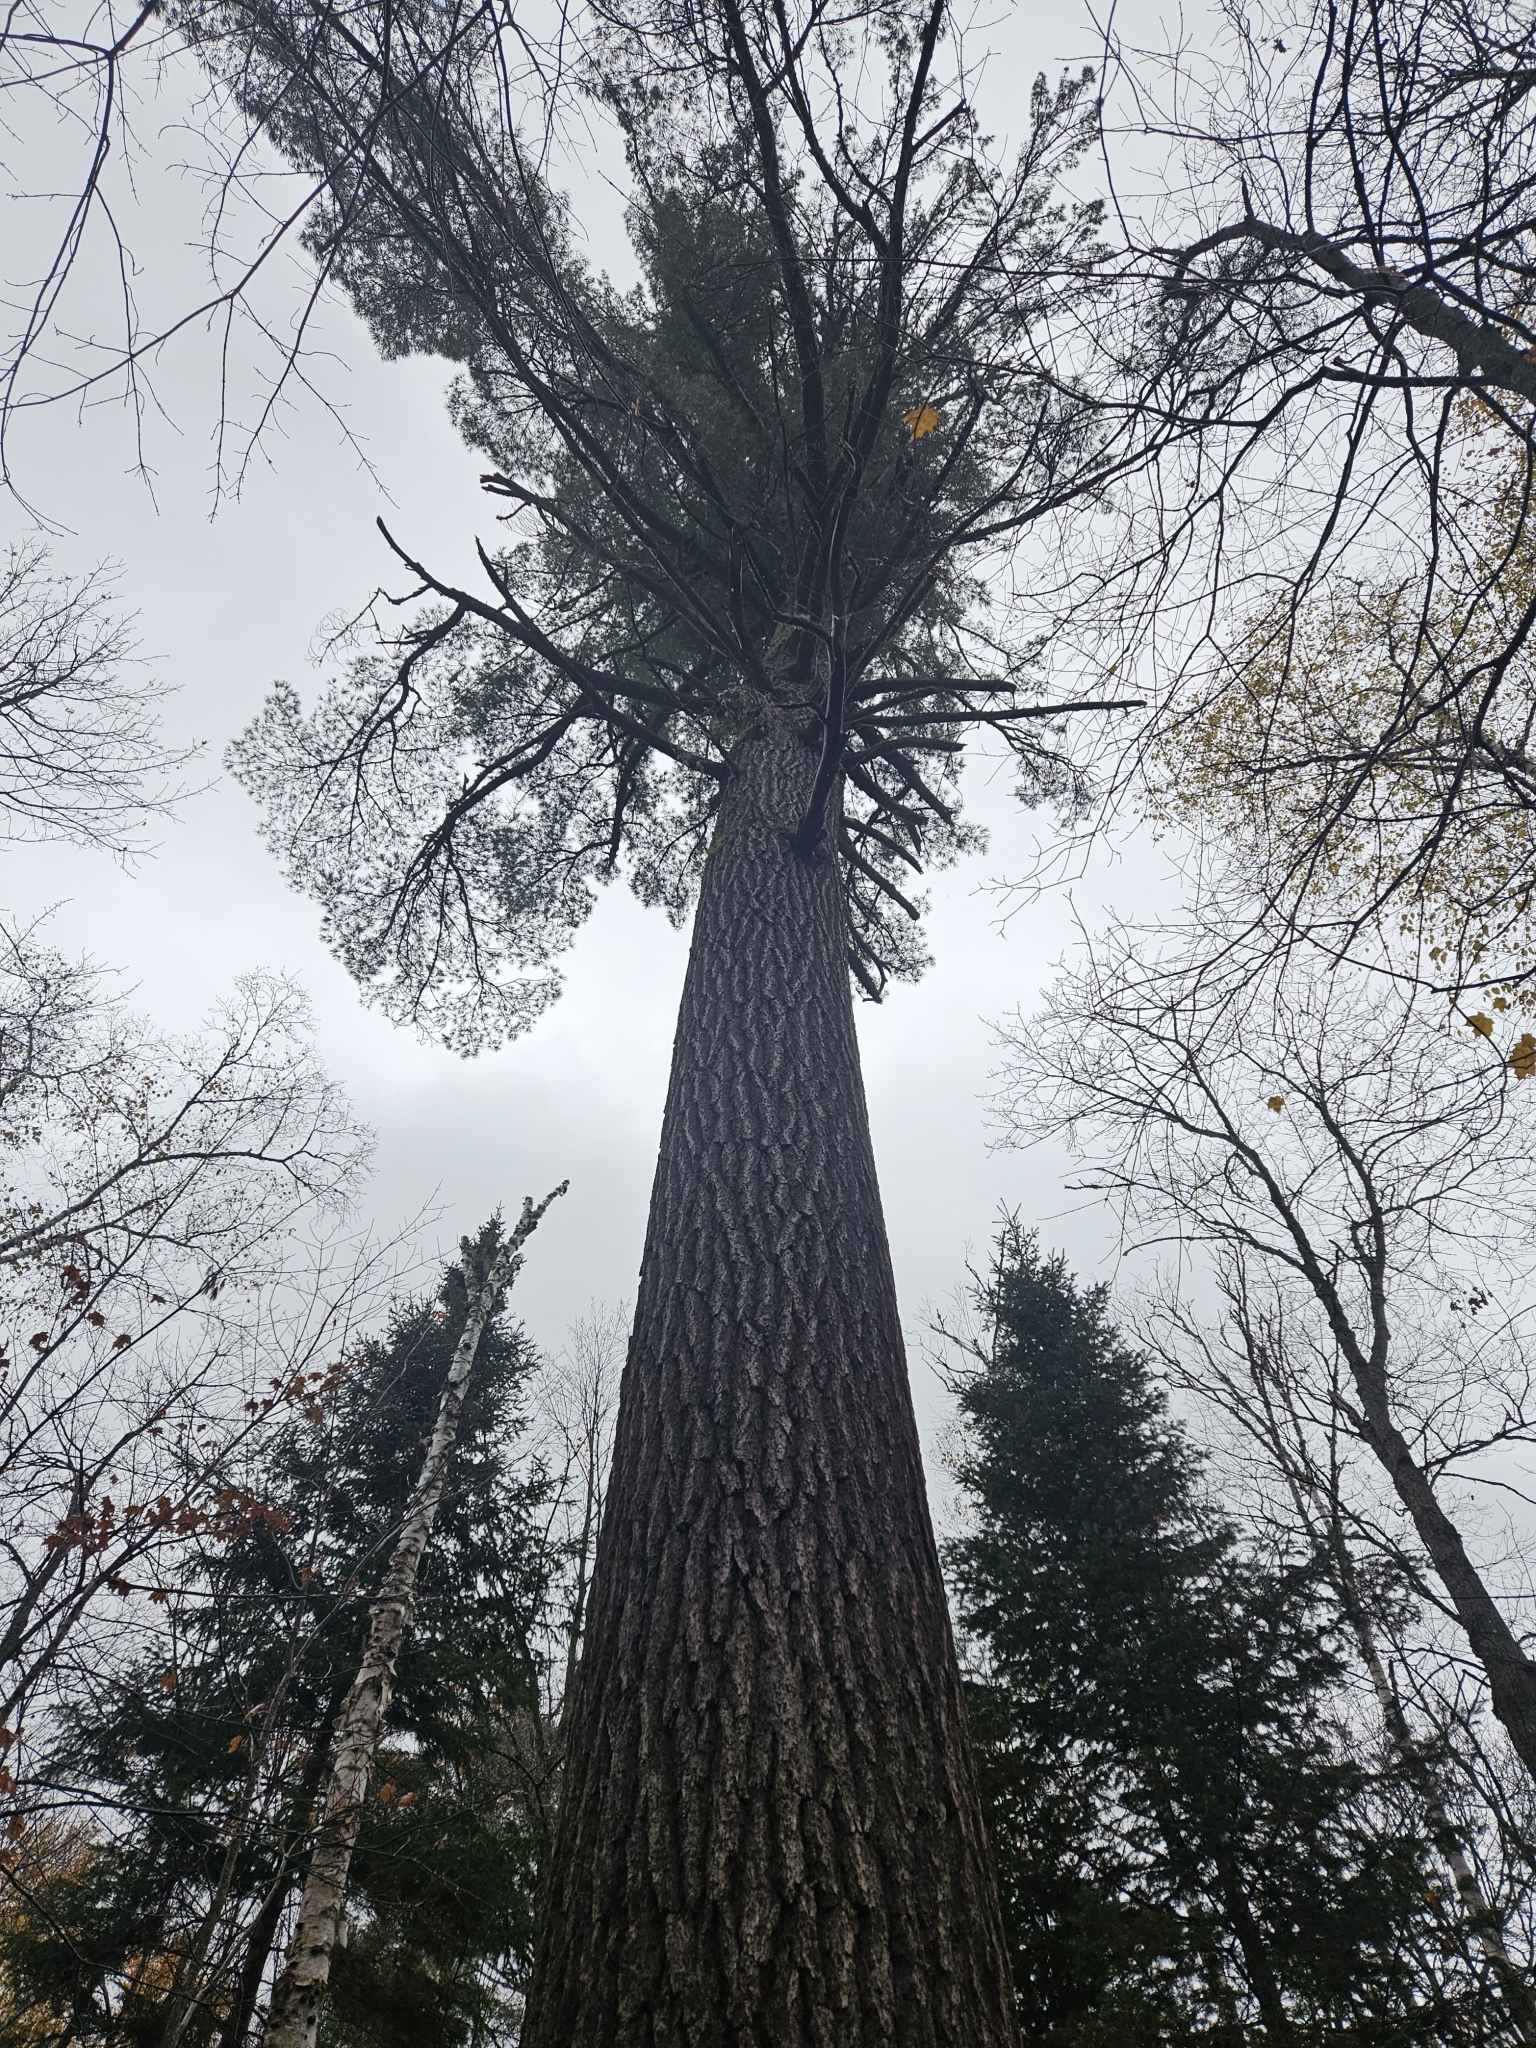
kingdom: Plantae
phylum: Tracheophyta
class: Pinopsida
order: Pinales
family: Pinaceae
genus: Pinus
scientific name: Pinus strobus
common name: Weymouth pine
